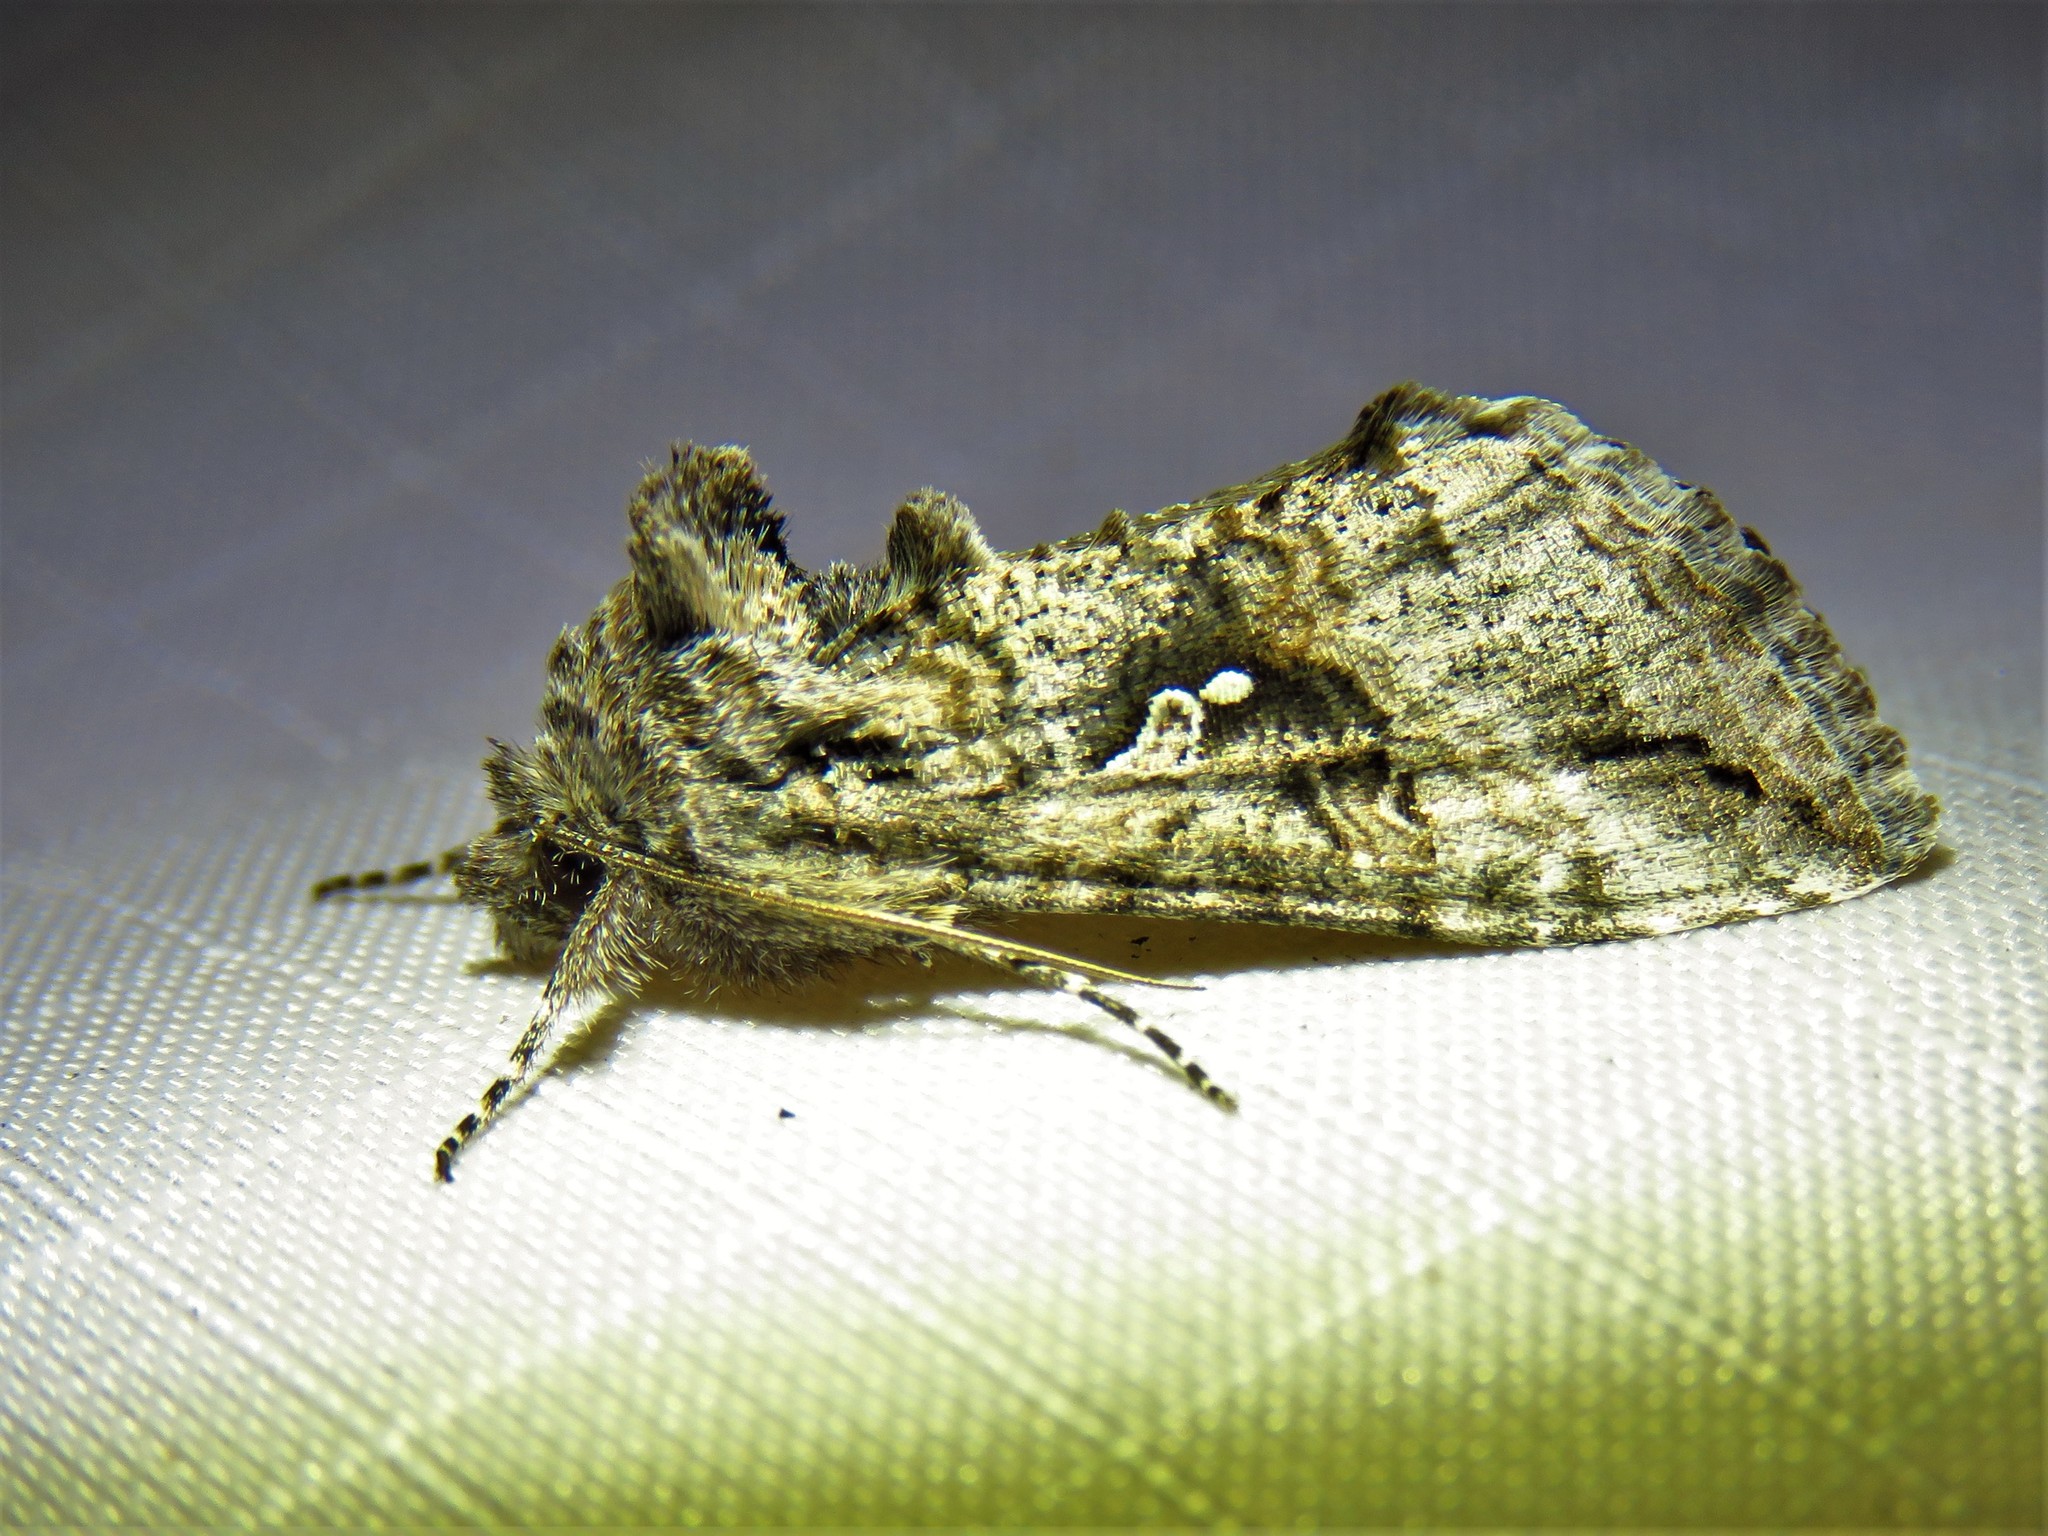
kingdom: Animalia
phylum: Arthropoda
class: Insecta
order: Lepidoptera
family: Noctuidae
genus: Rachiplusia
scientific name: Rachiplusia ou
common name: Gray looper moth
